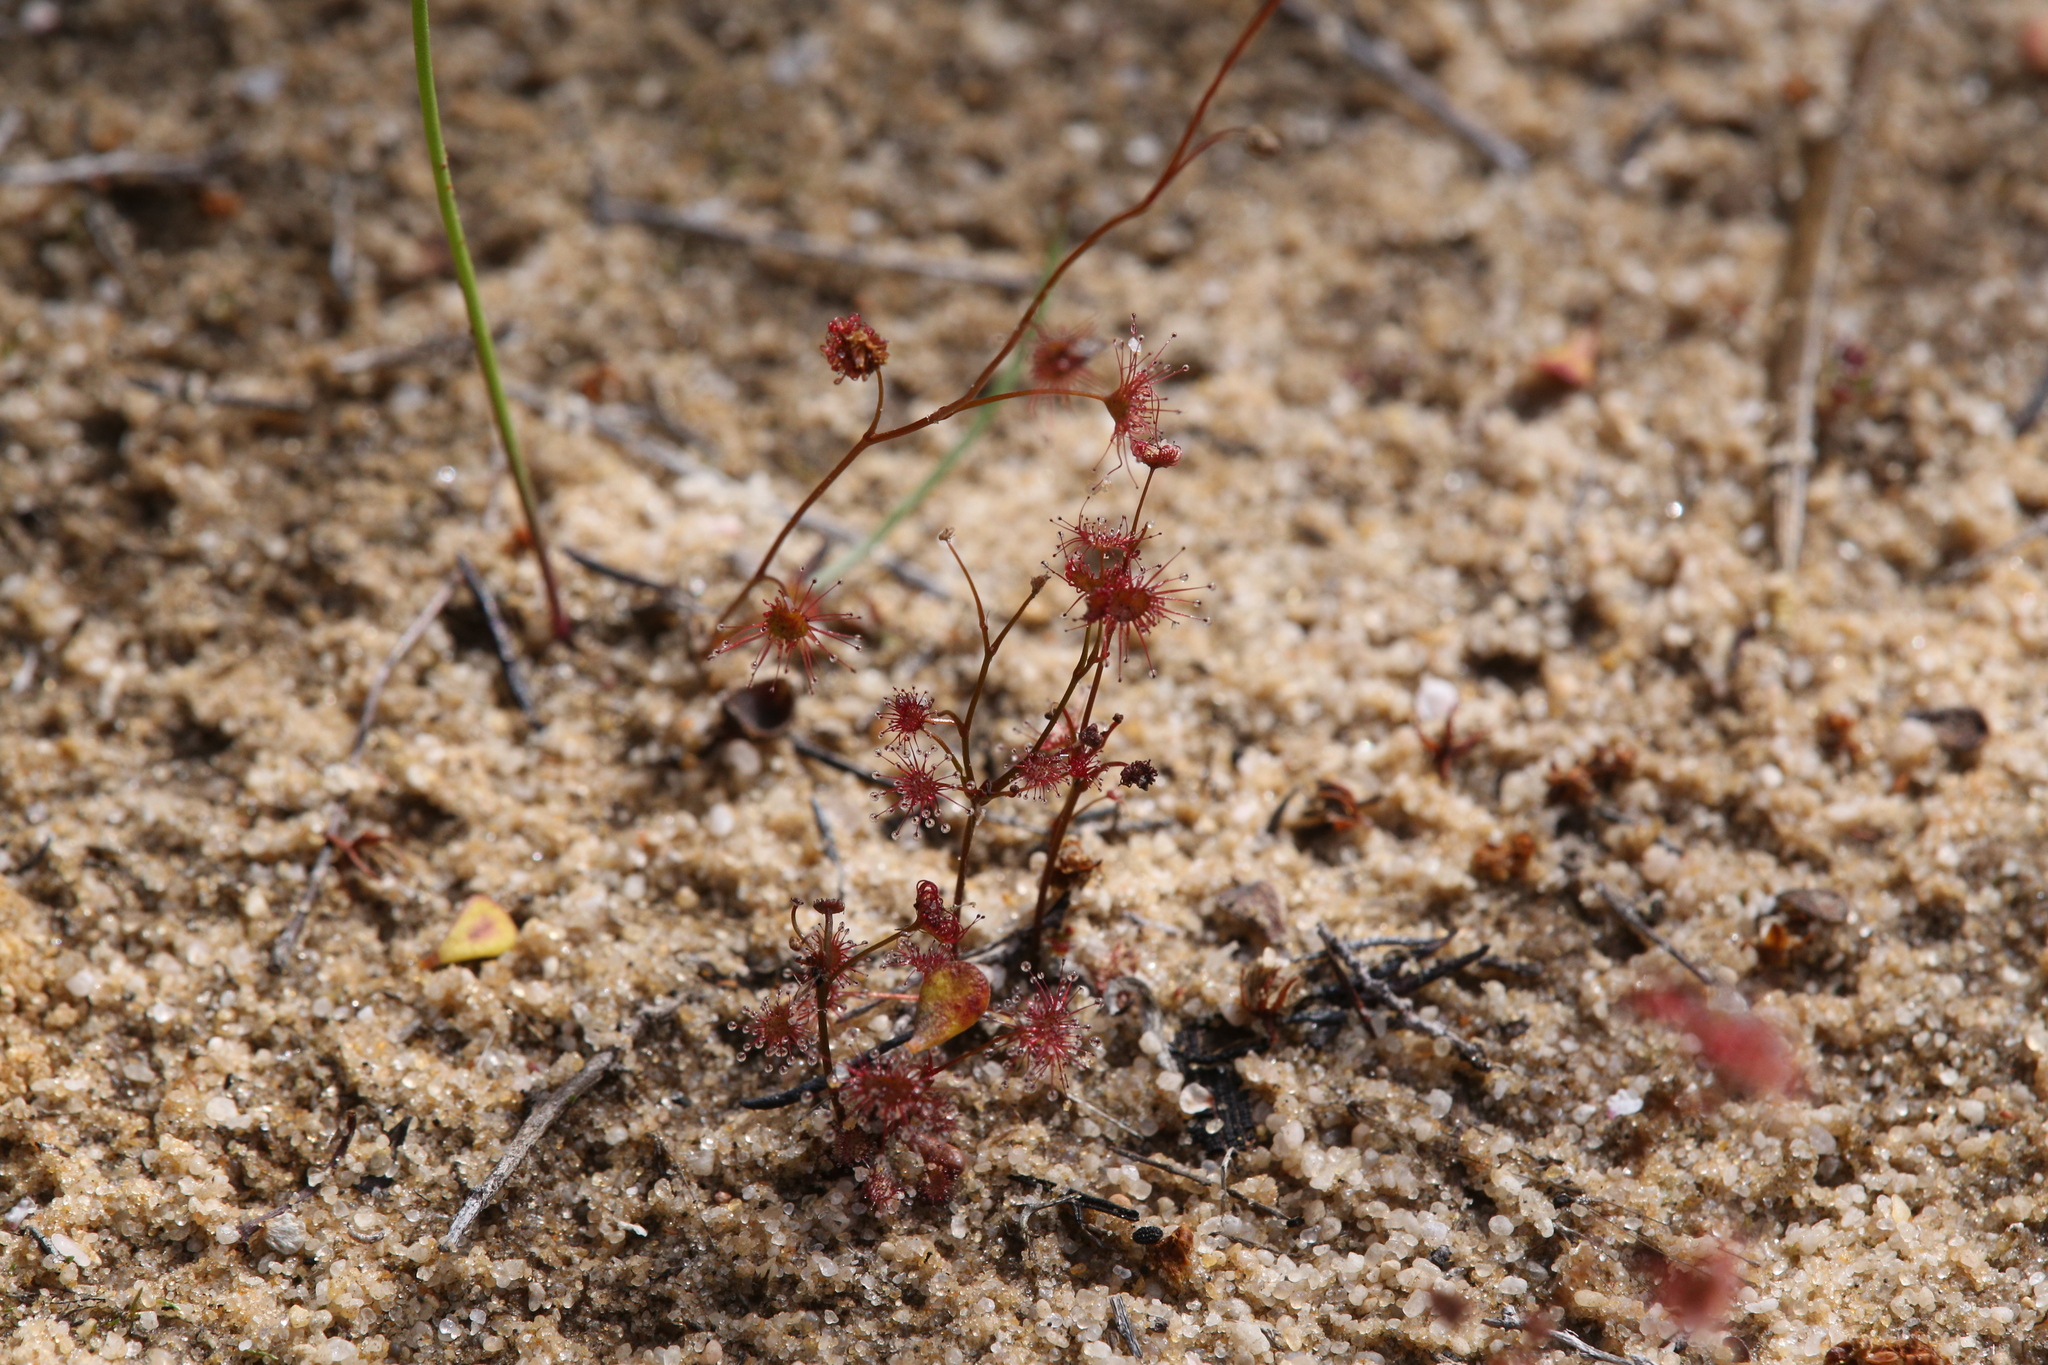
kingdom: Plantae
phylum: Tracheophyta
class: Magnoliopsida
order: Caryophyllales
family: Droseraceae
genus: Drosera
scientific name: Drosera radicans
